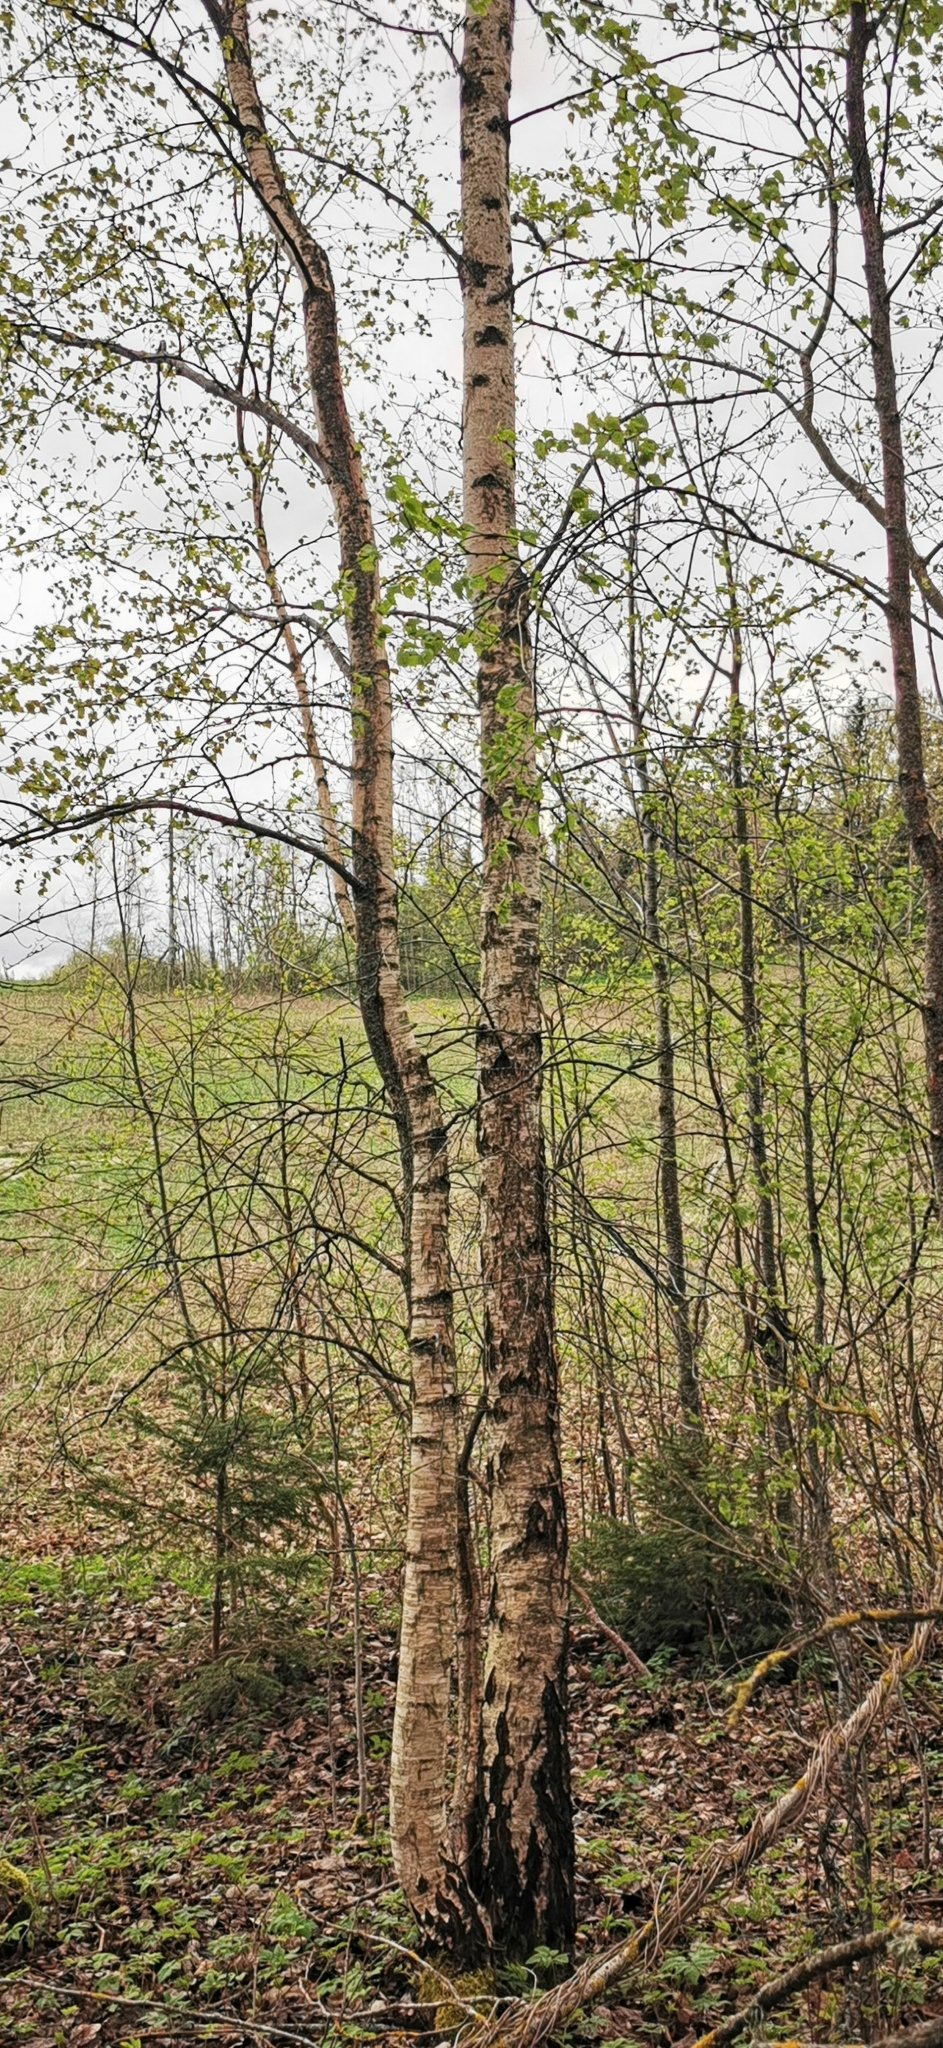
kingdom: Plantae
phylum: Tracheophyta
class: Magnoliopsida
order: Fagales
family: Betulaceae
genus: Betula
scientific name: Betula pendula
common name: Silver birch
